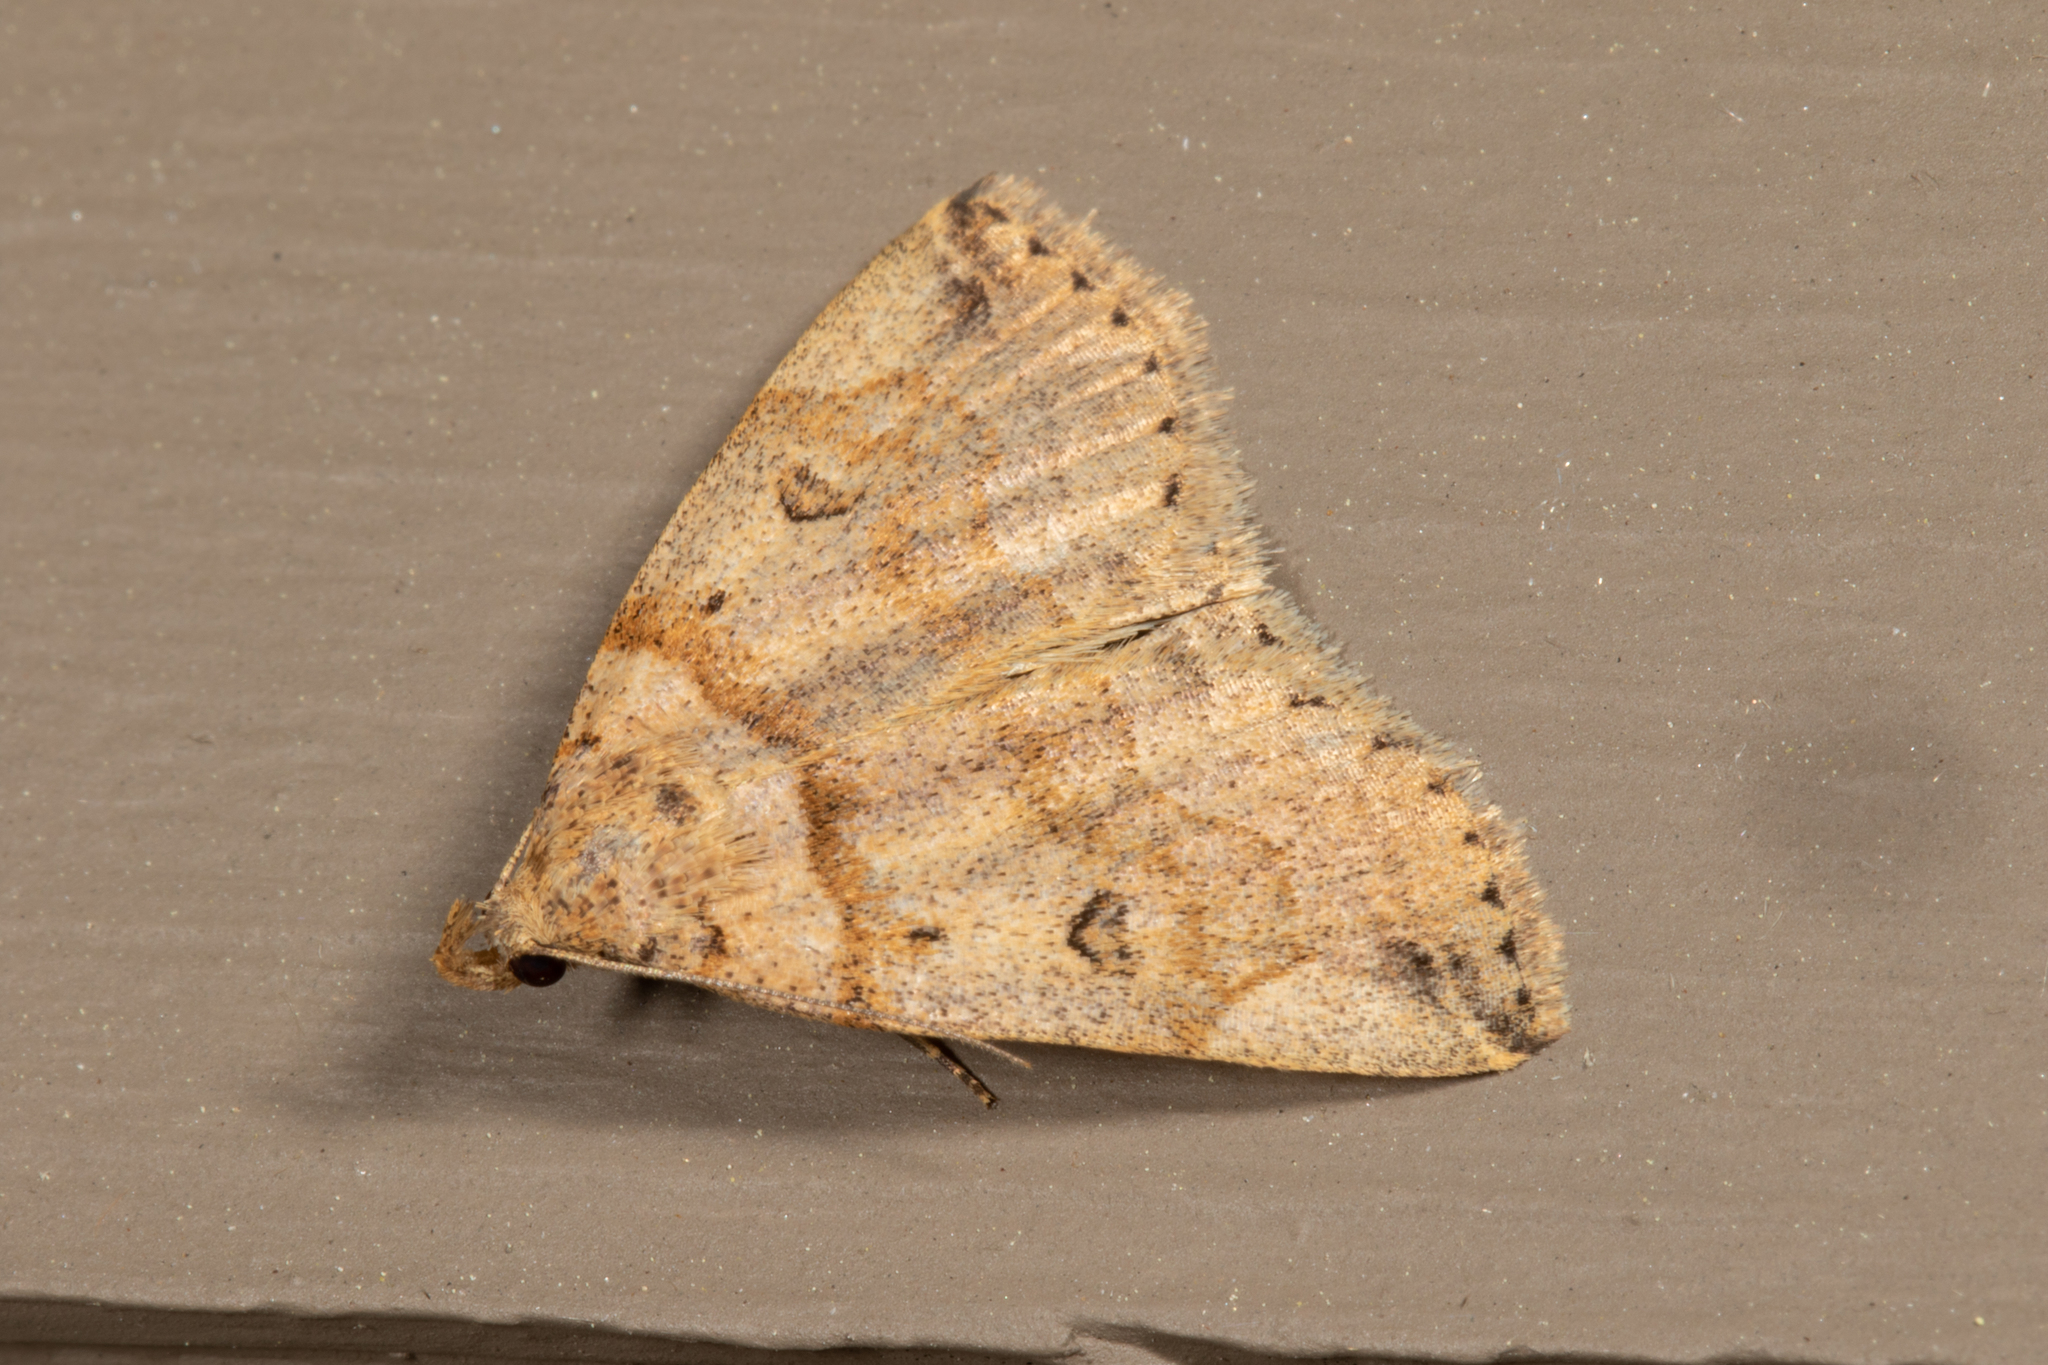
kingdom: Animalia
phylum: Arthropoda
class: Insecta
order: Lepidoptera
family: Erebidae
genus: Zanclognatha
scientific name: Zanclognatha laevigata
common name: Variable fan-foot
